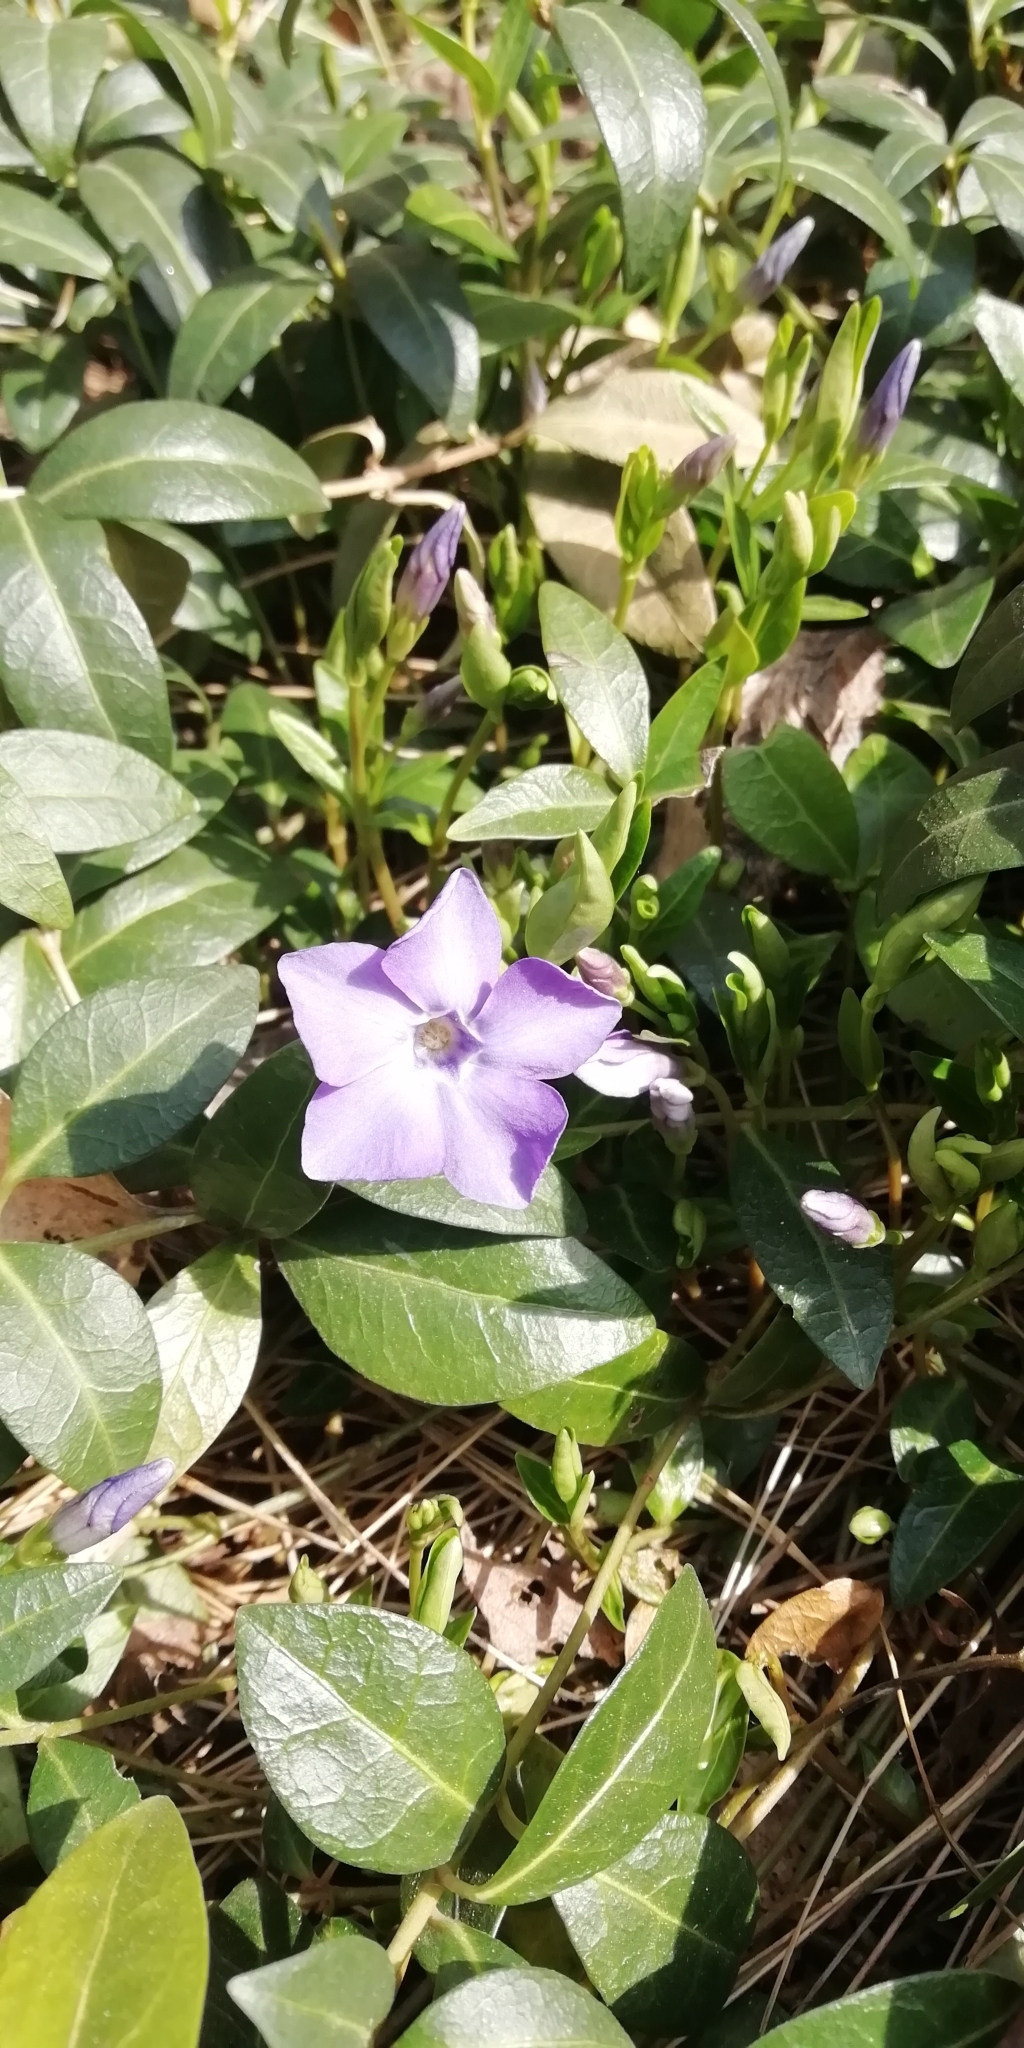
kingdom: Plantae
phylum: Tracheophyta
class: Magnoliopsida
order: Gentianales
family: Apocynaceae
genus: Vinca
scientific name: Vinca minor
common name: Lesser periwinkle
